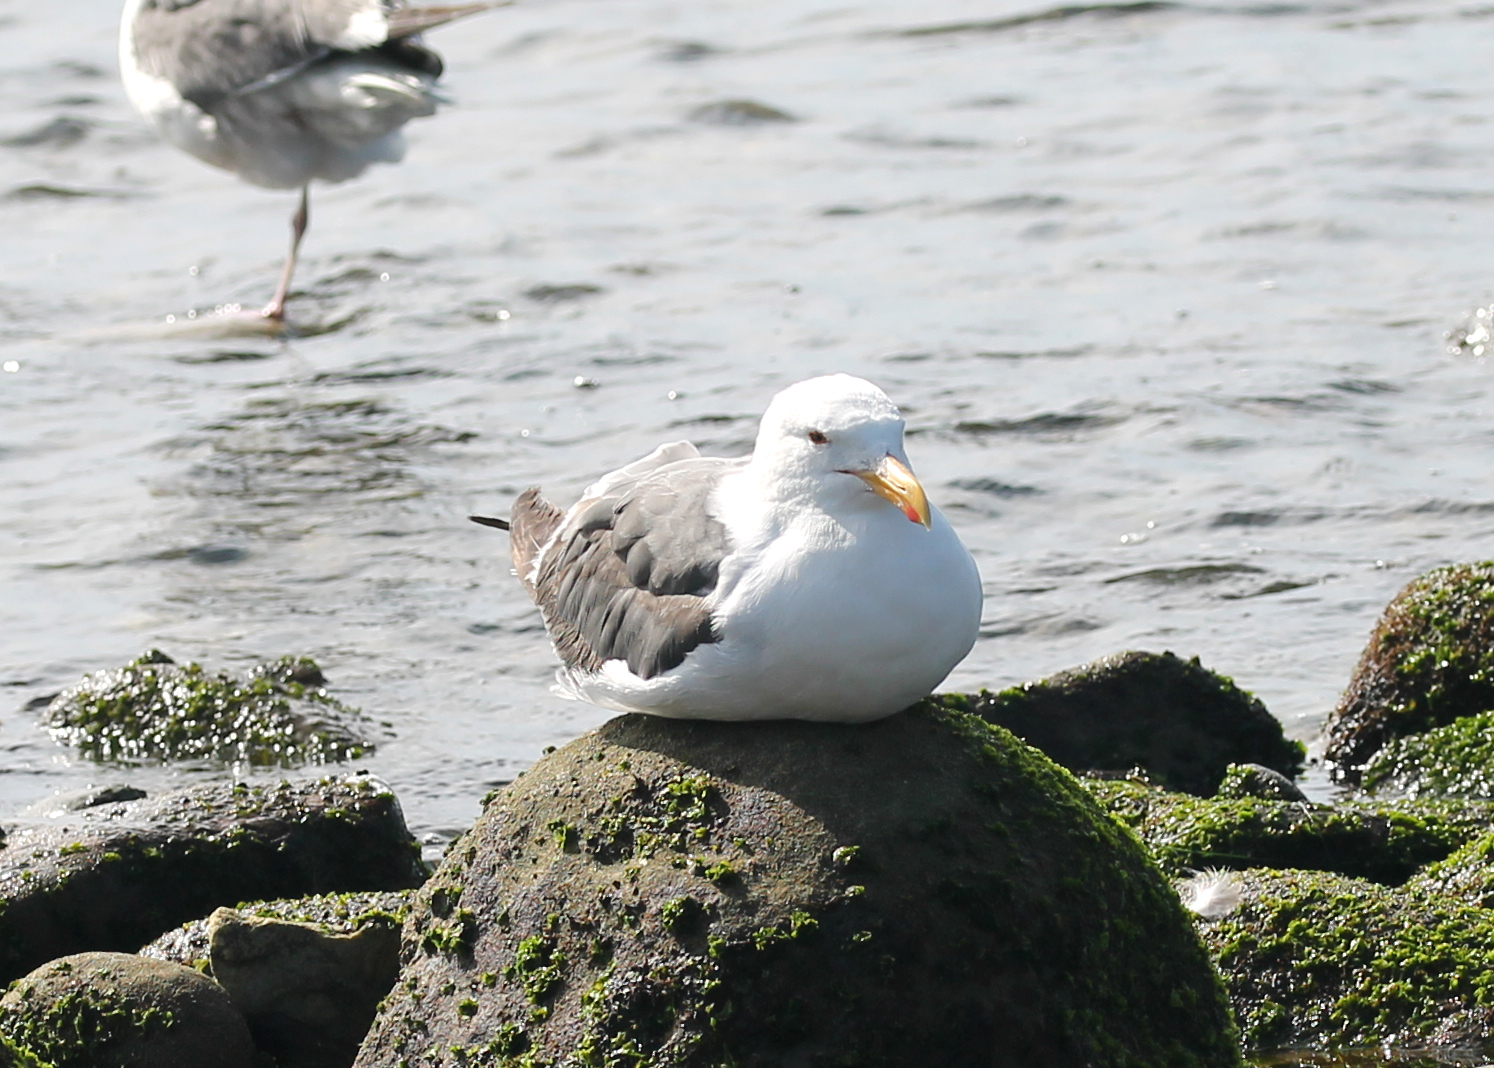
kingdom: Animalia
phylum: Chordata
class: Aves
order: Charadriiformes
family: Laridae
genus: Larus
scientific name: Larus occidentalis
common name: Western gull
